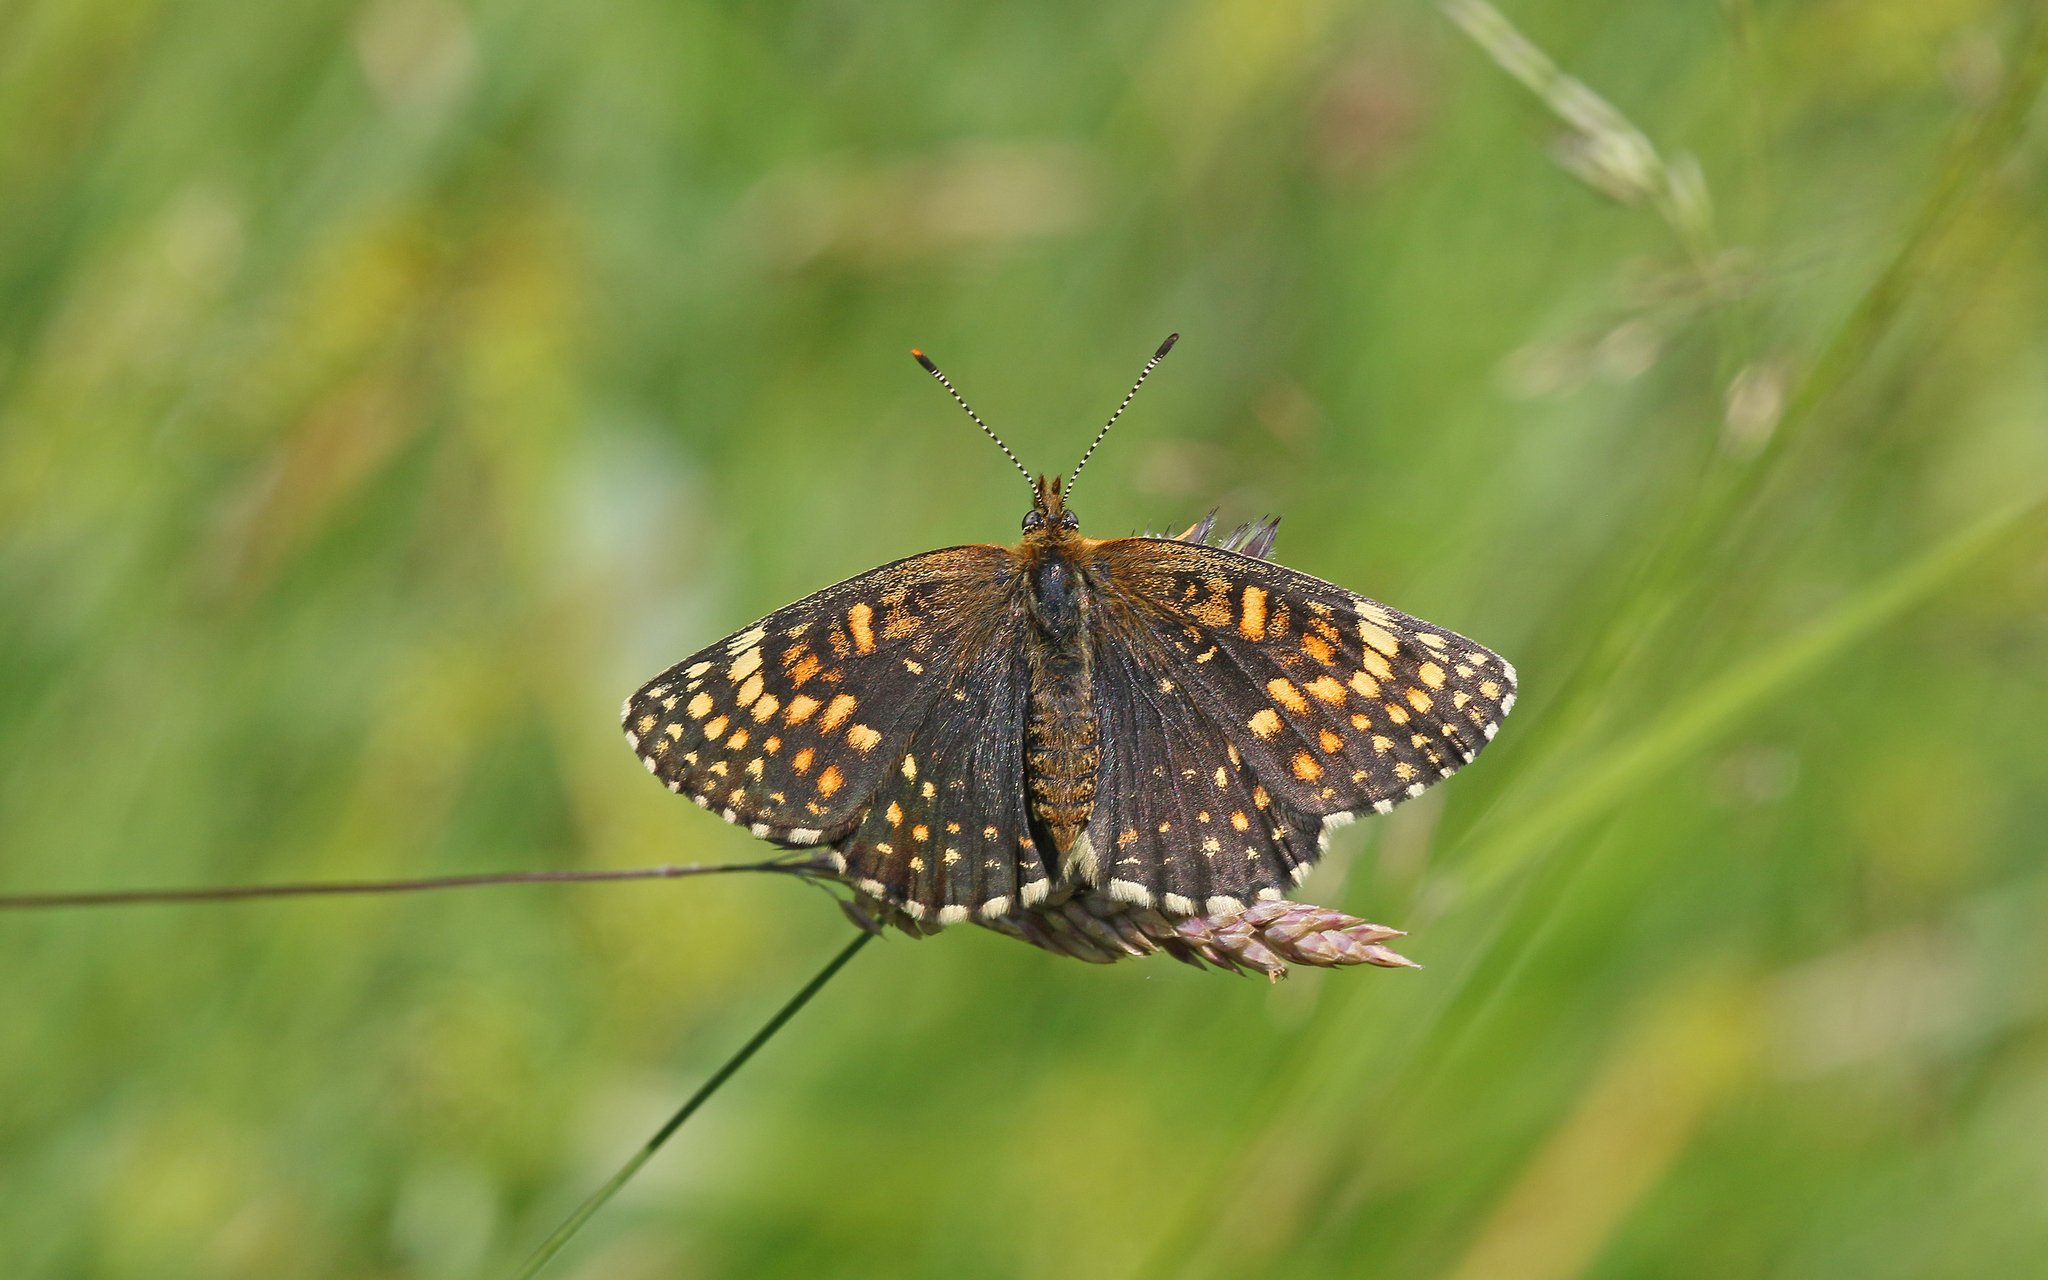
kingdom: Animalia
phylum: Arthropoda
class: Insecta
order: Lepidoptera
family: Nymphalidae
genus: Melitaea
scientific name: Melitaea diamina
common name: False heath fritillary
